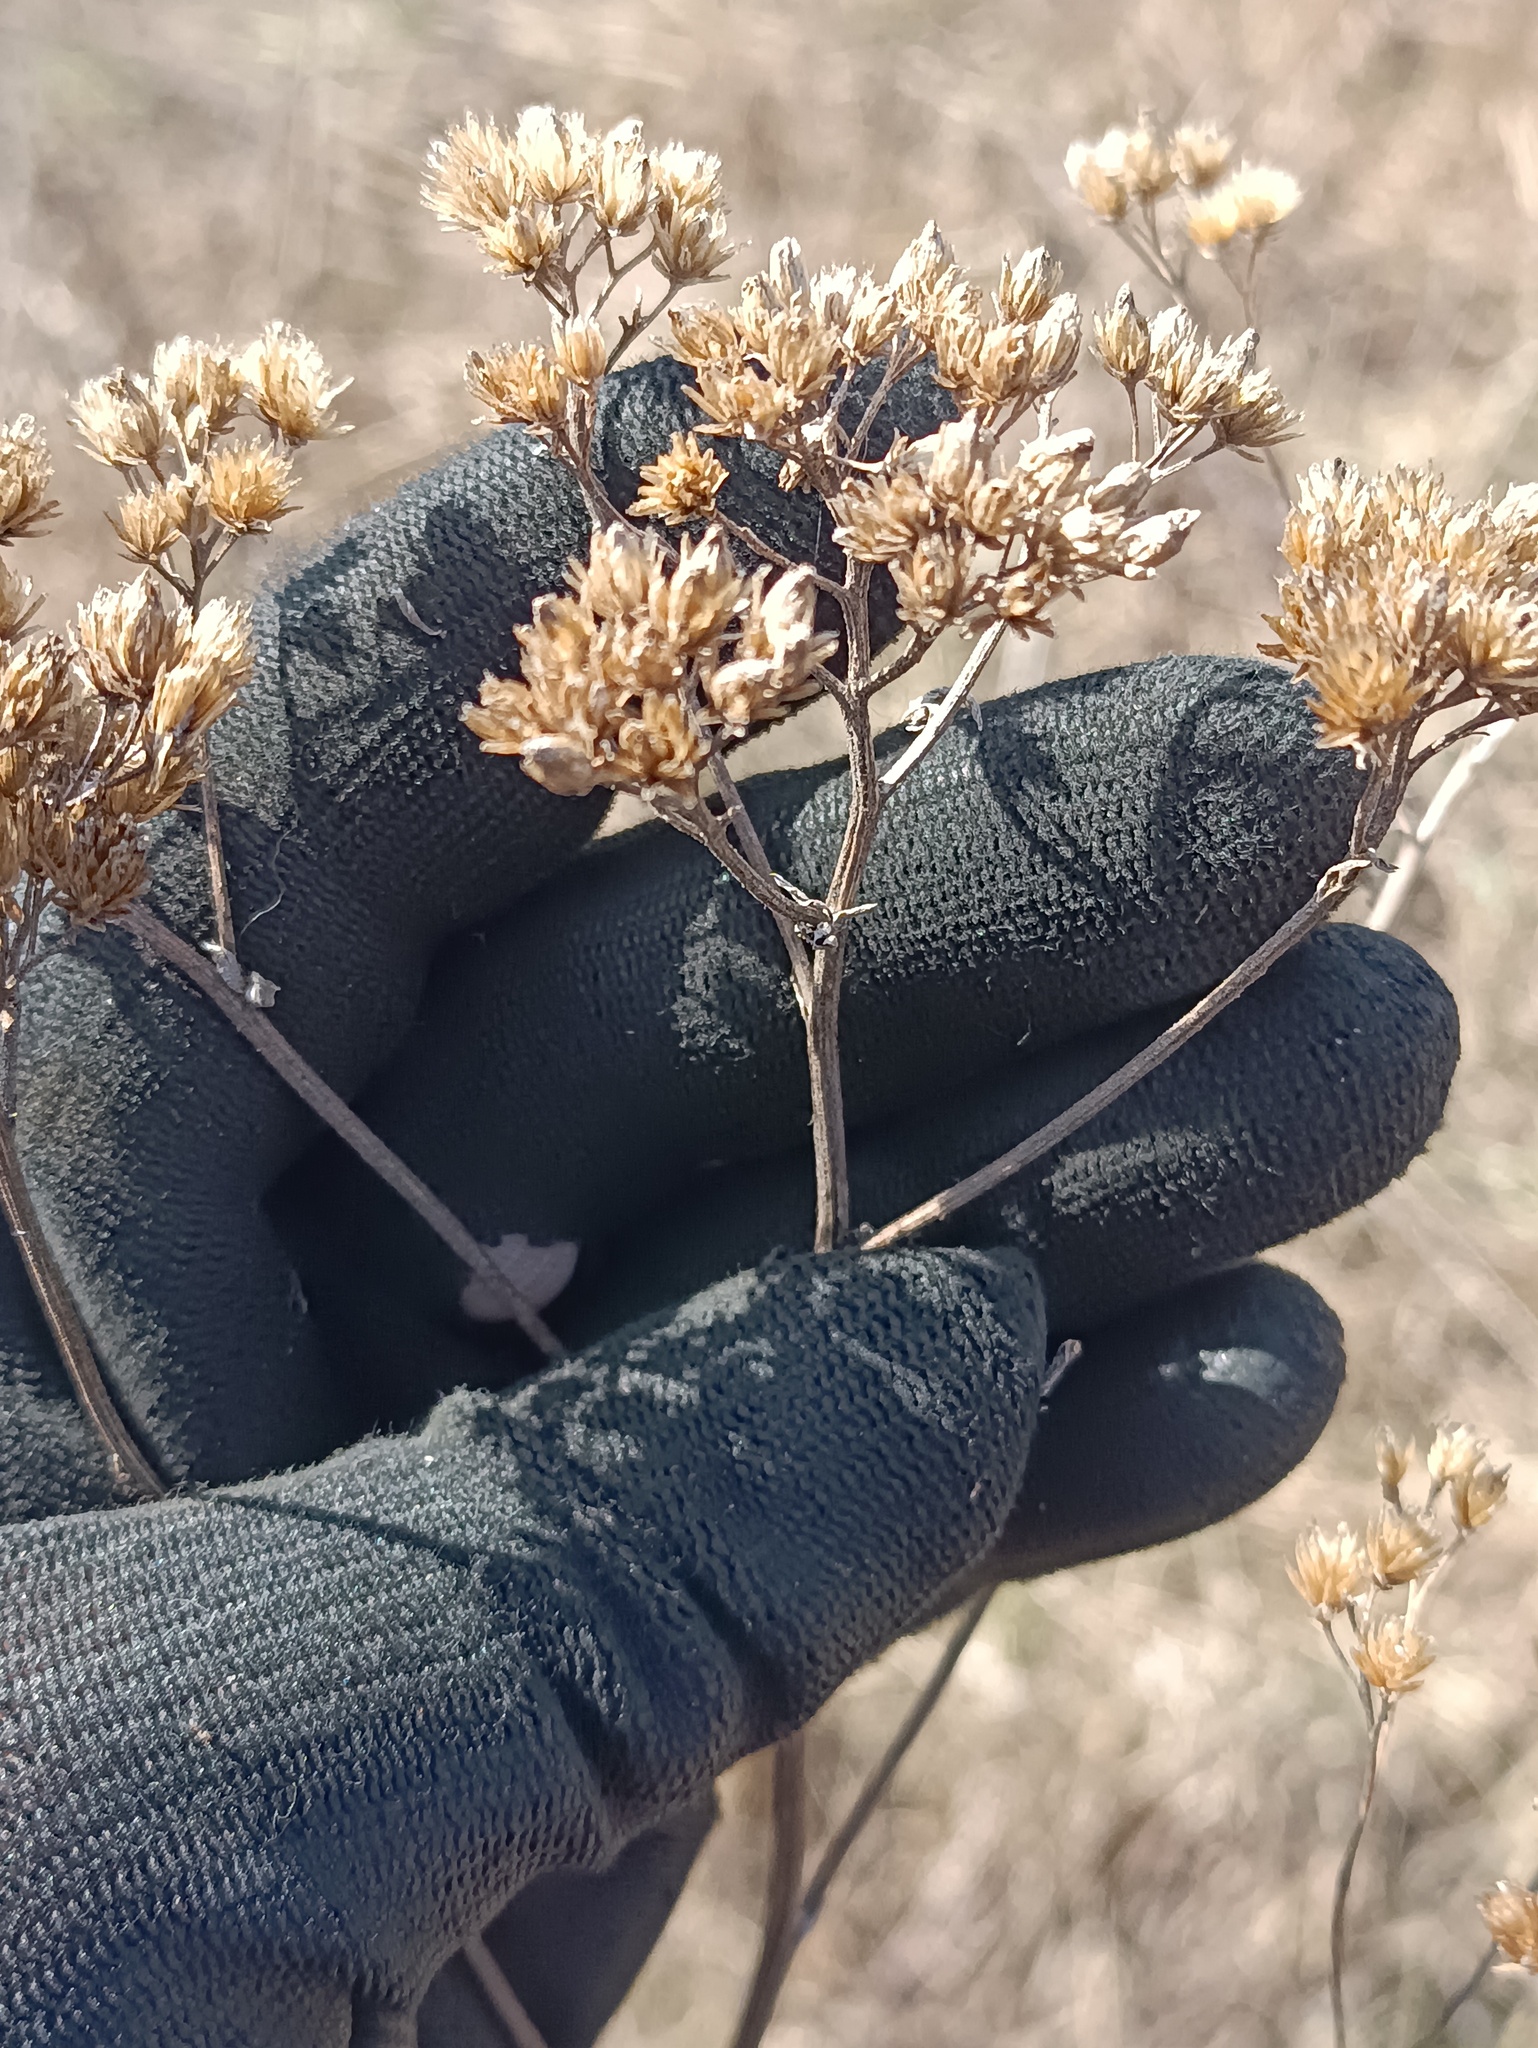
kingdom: Plantae
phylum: Tracheophyta
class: Magnoliopsida
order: Asterales
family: Asteraceae
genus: Achillea
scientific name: Achillea millefolium
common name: Yarrow
